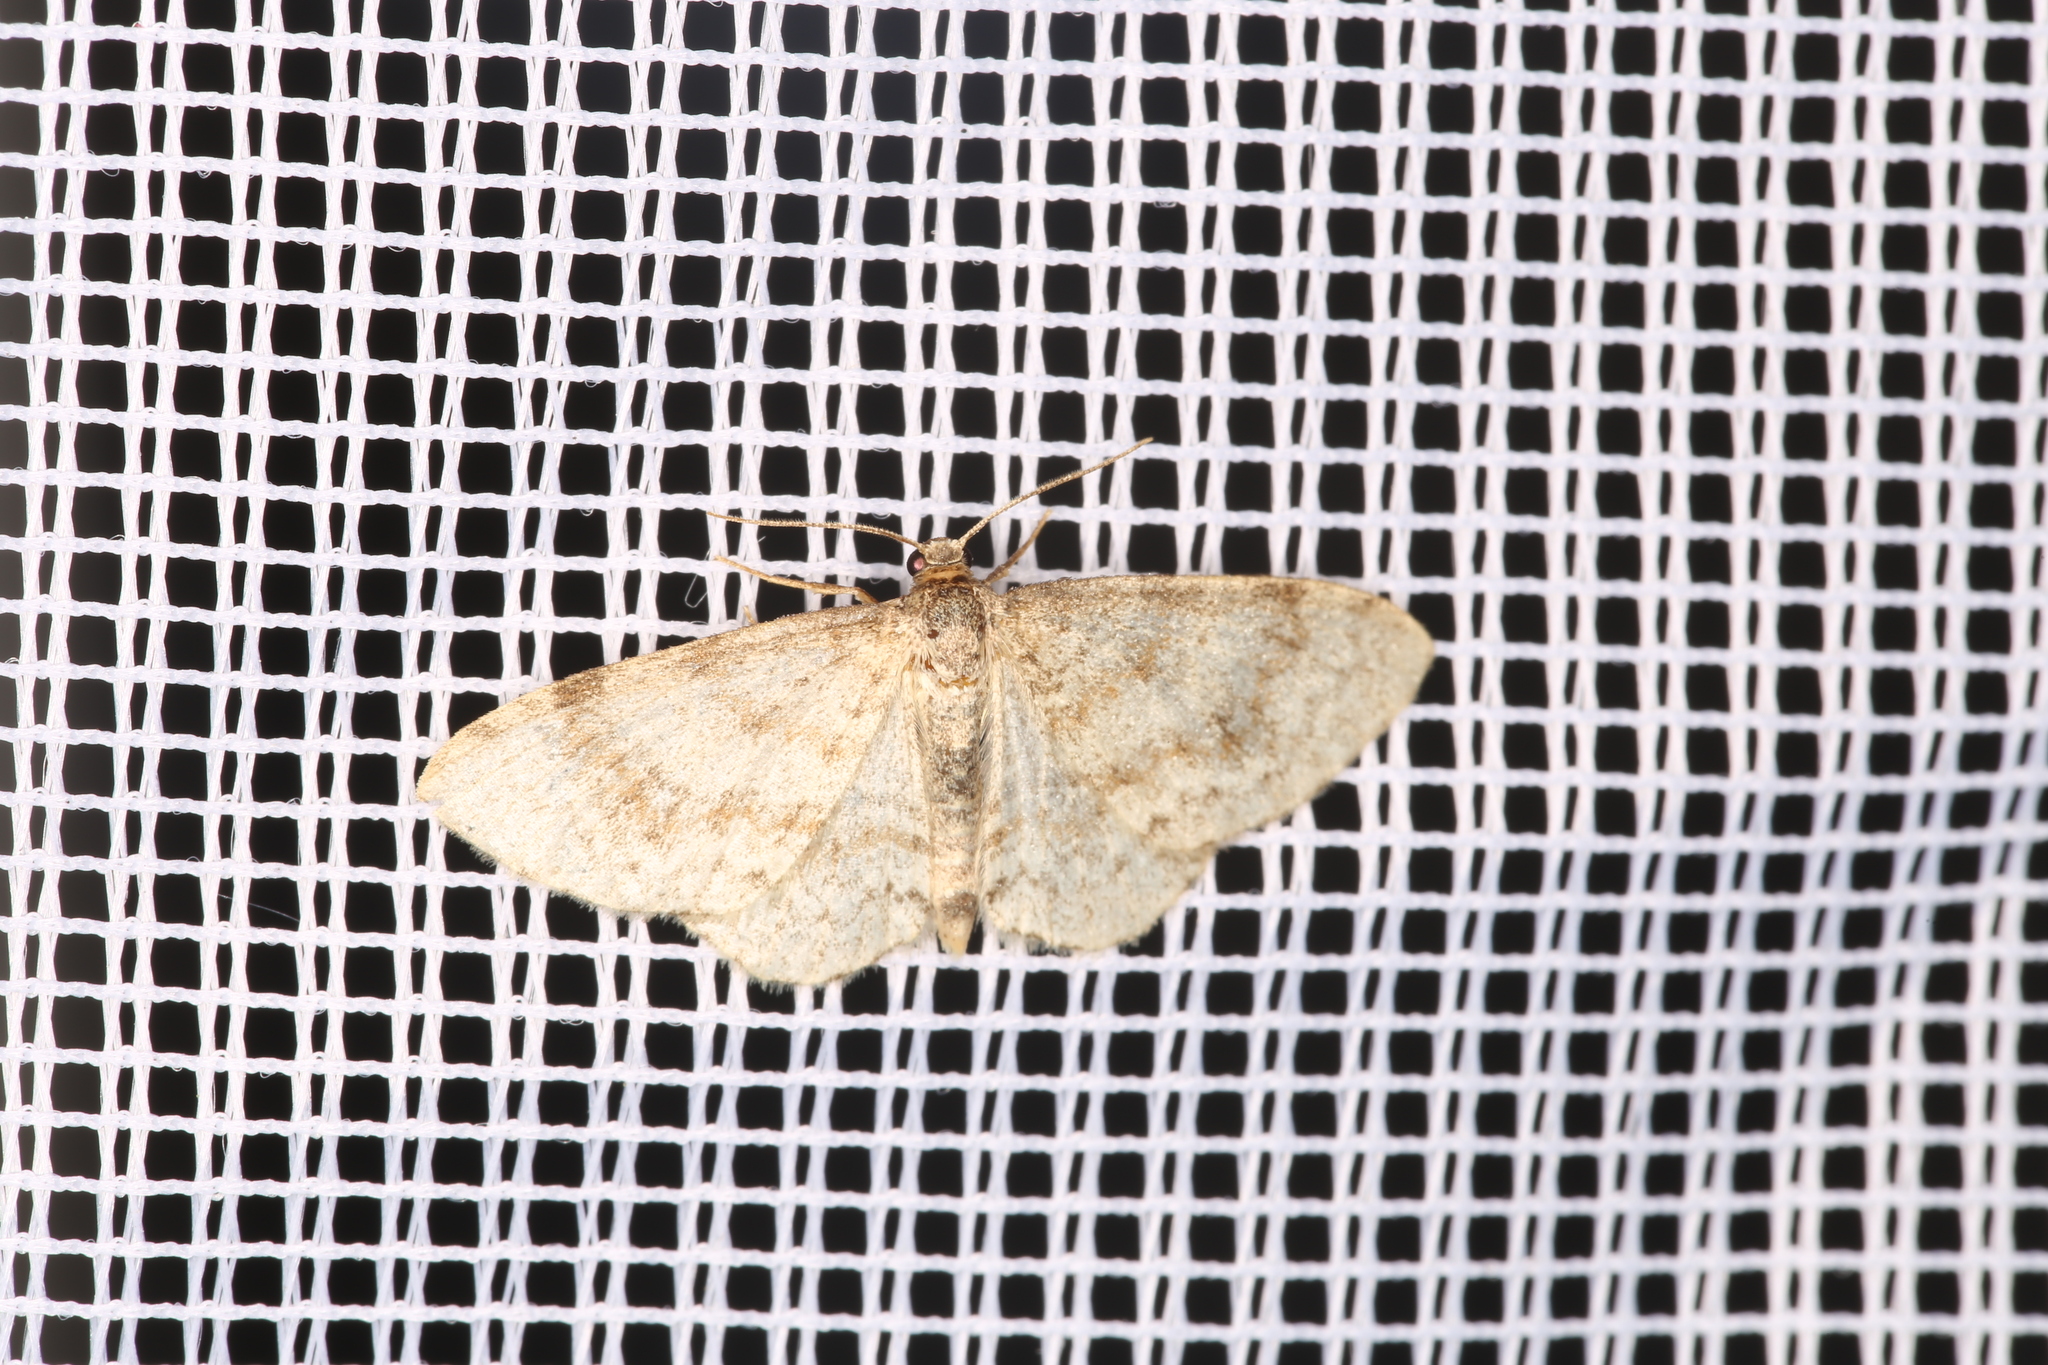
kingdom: Animalia
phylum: Arthropoda
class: Insecta
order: Lepidoptera
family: Geometridae
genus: Hydrelia
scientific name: Hydrelia sylvata
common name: Waved carpet
